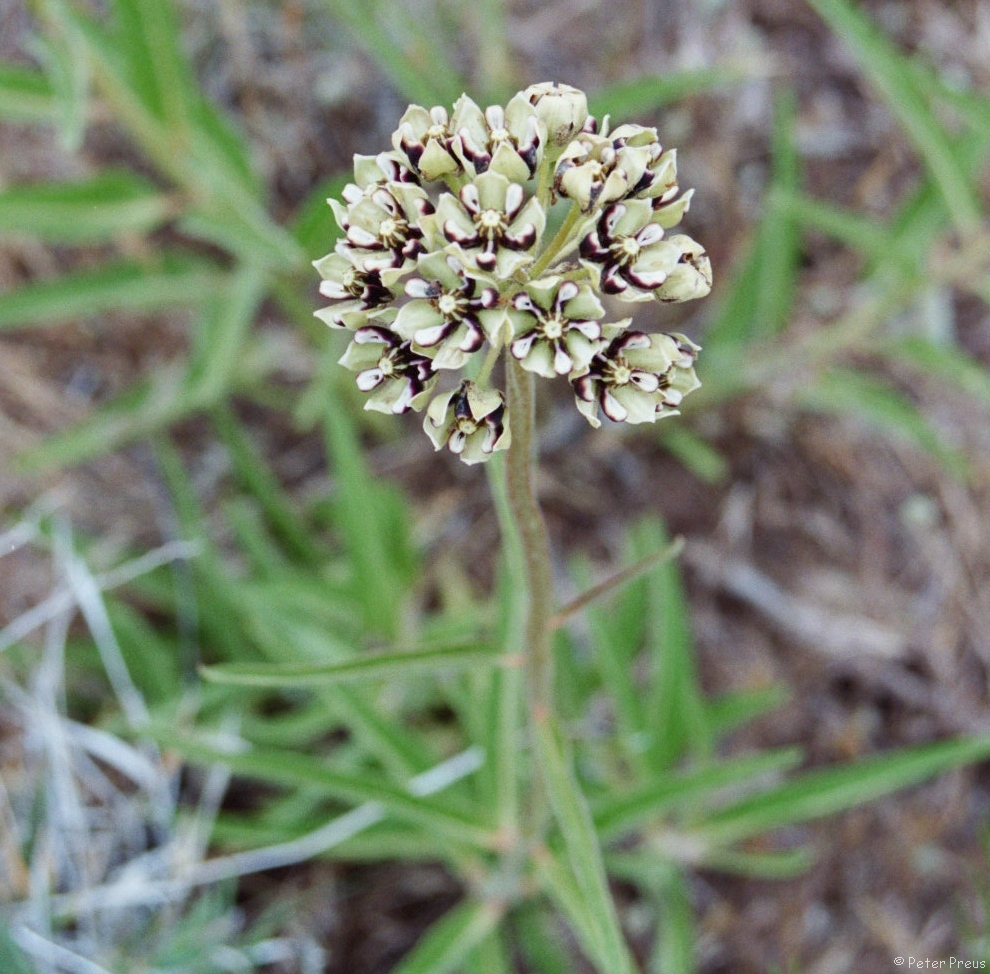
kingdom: Plantae
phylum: Tracheophyta
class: Magnoliopsida
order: Gentianales
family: Apocynaceae
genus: Asclepias
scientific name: Asclepias asperula
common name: Antelope horns
